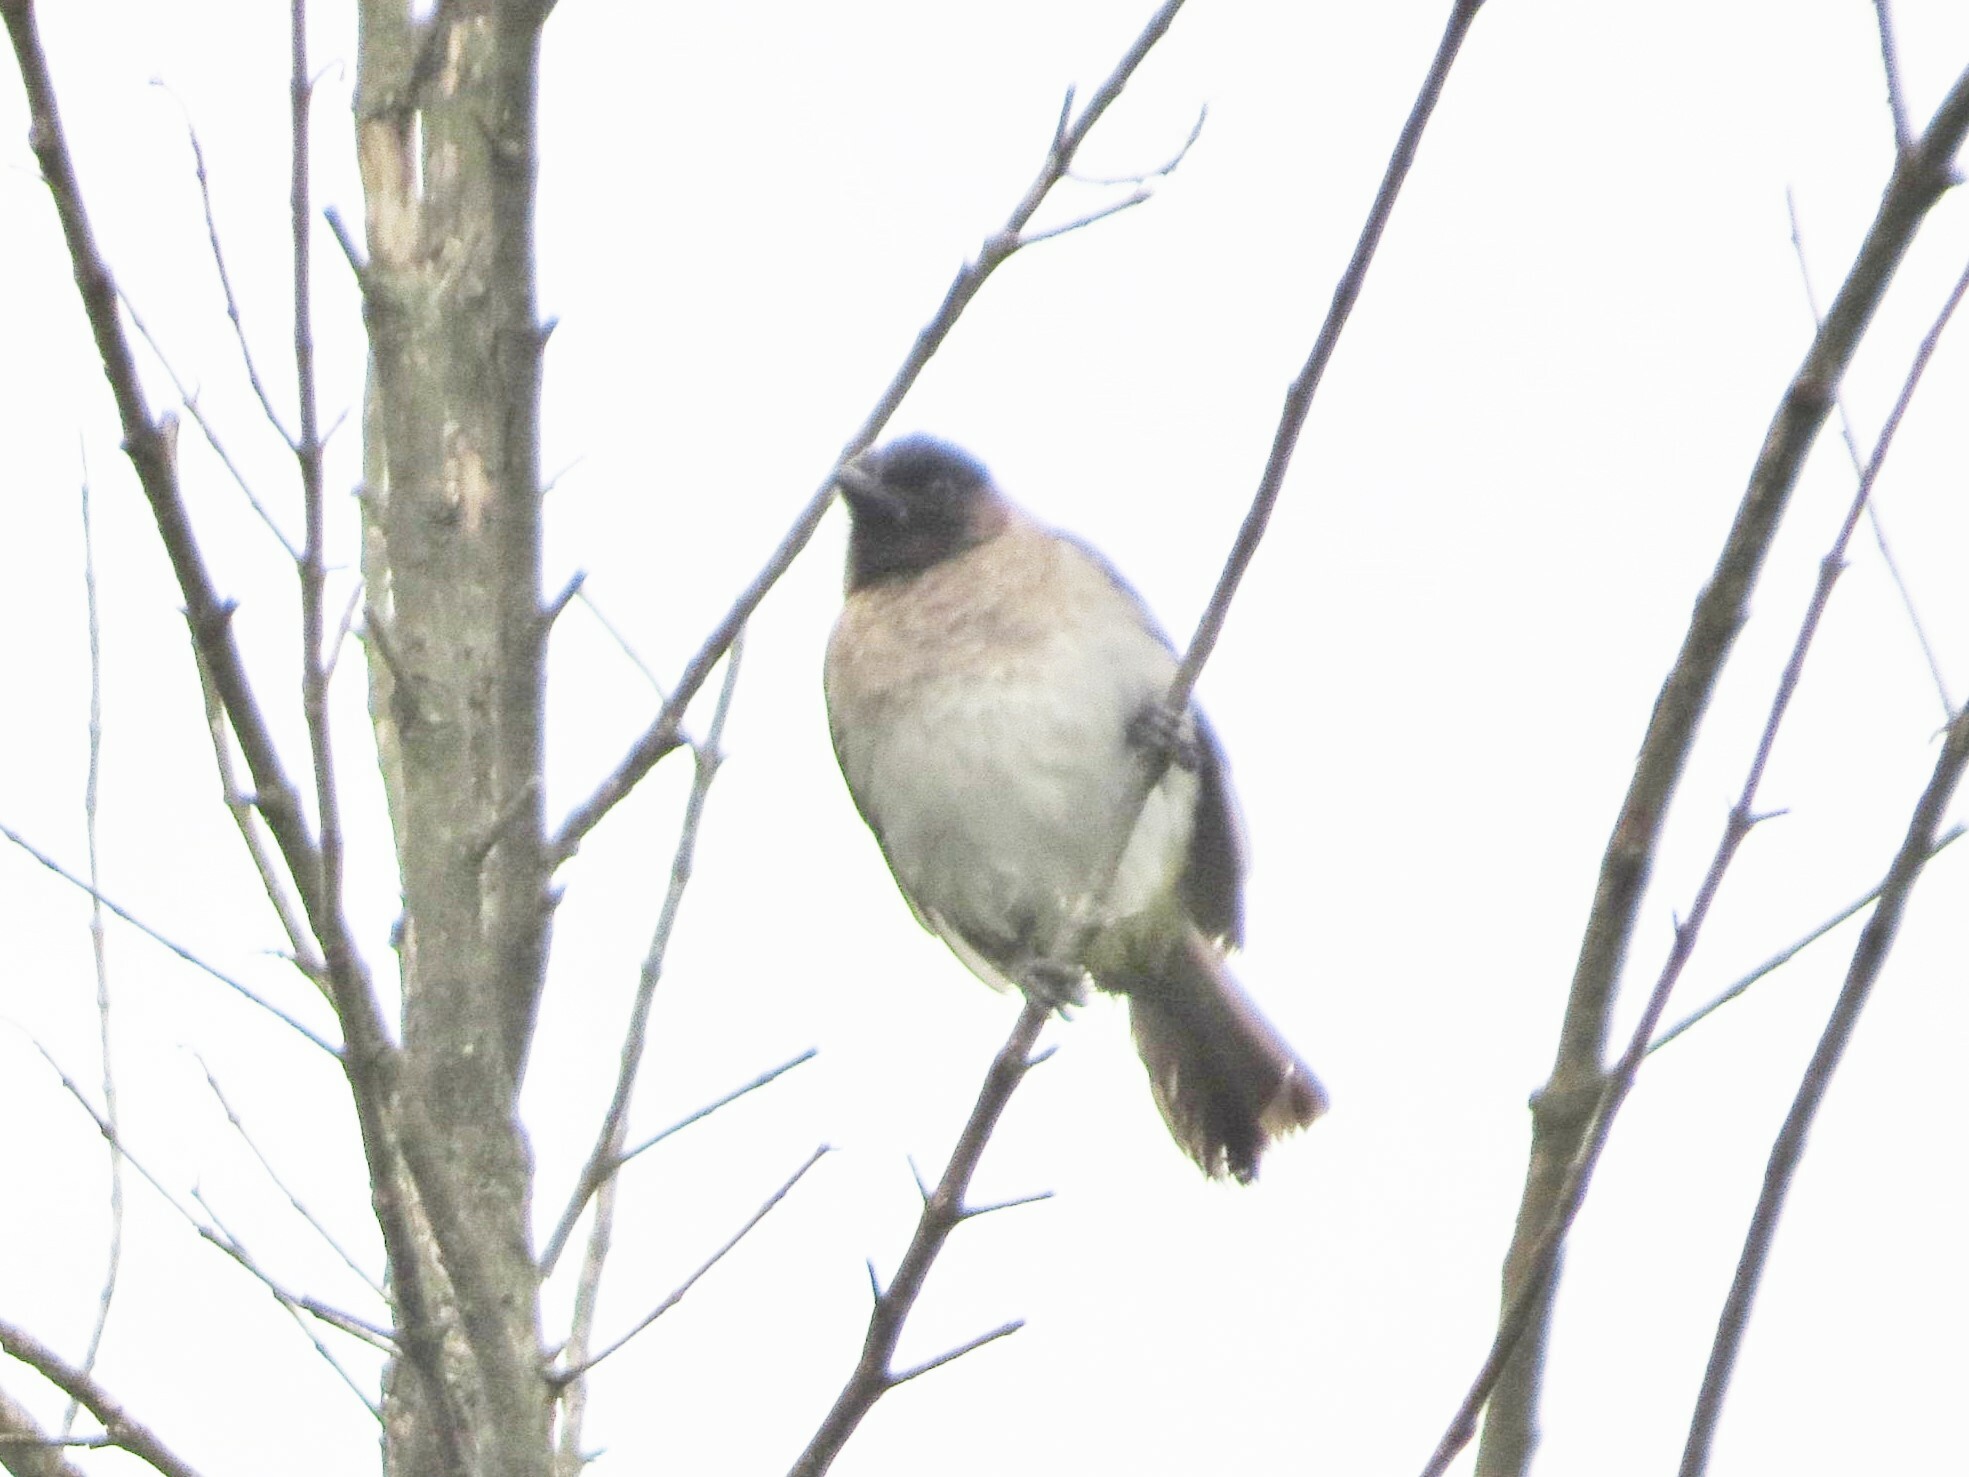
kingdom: Animalia
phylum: Chordata
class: Aves
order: Passeriformes
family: Pycnonotidae
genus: Pycnonotus
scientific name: Pycnonotus barbatus
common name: Common bulbul
